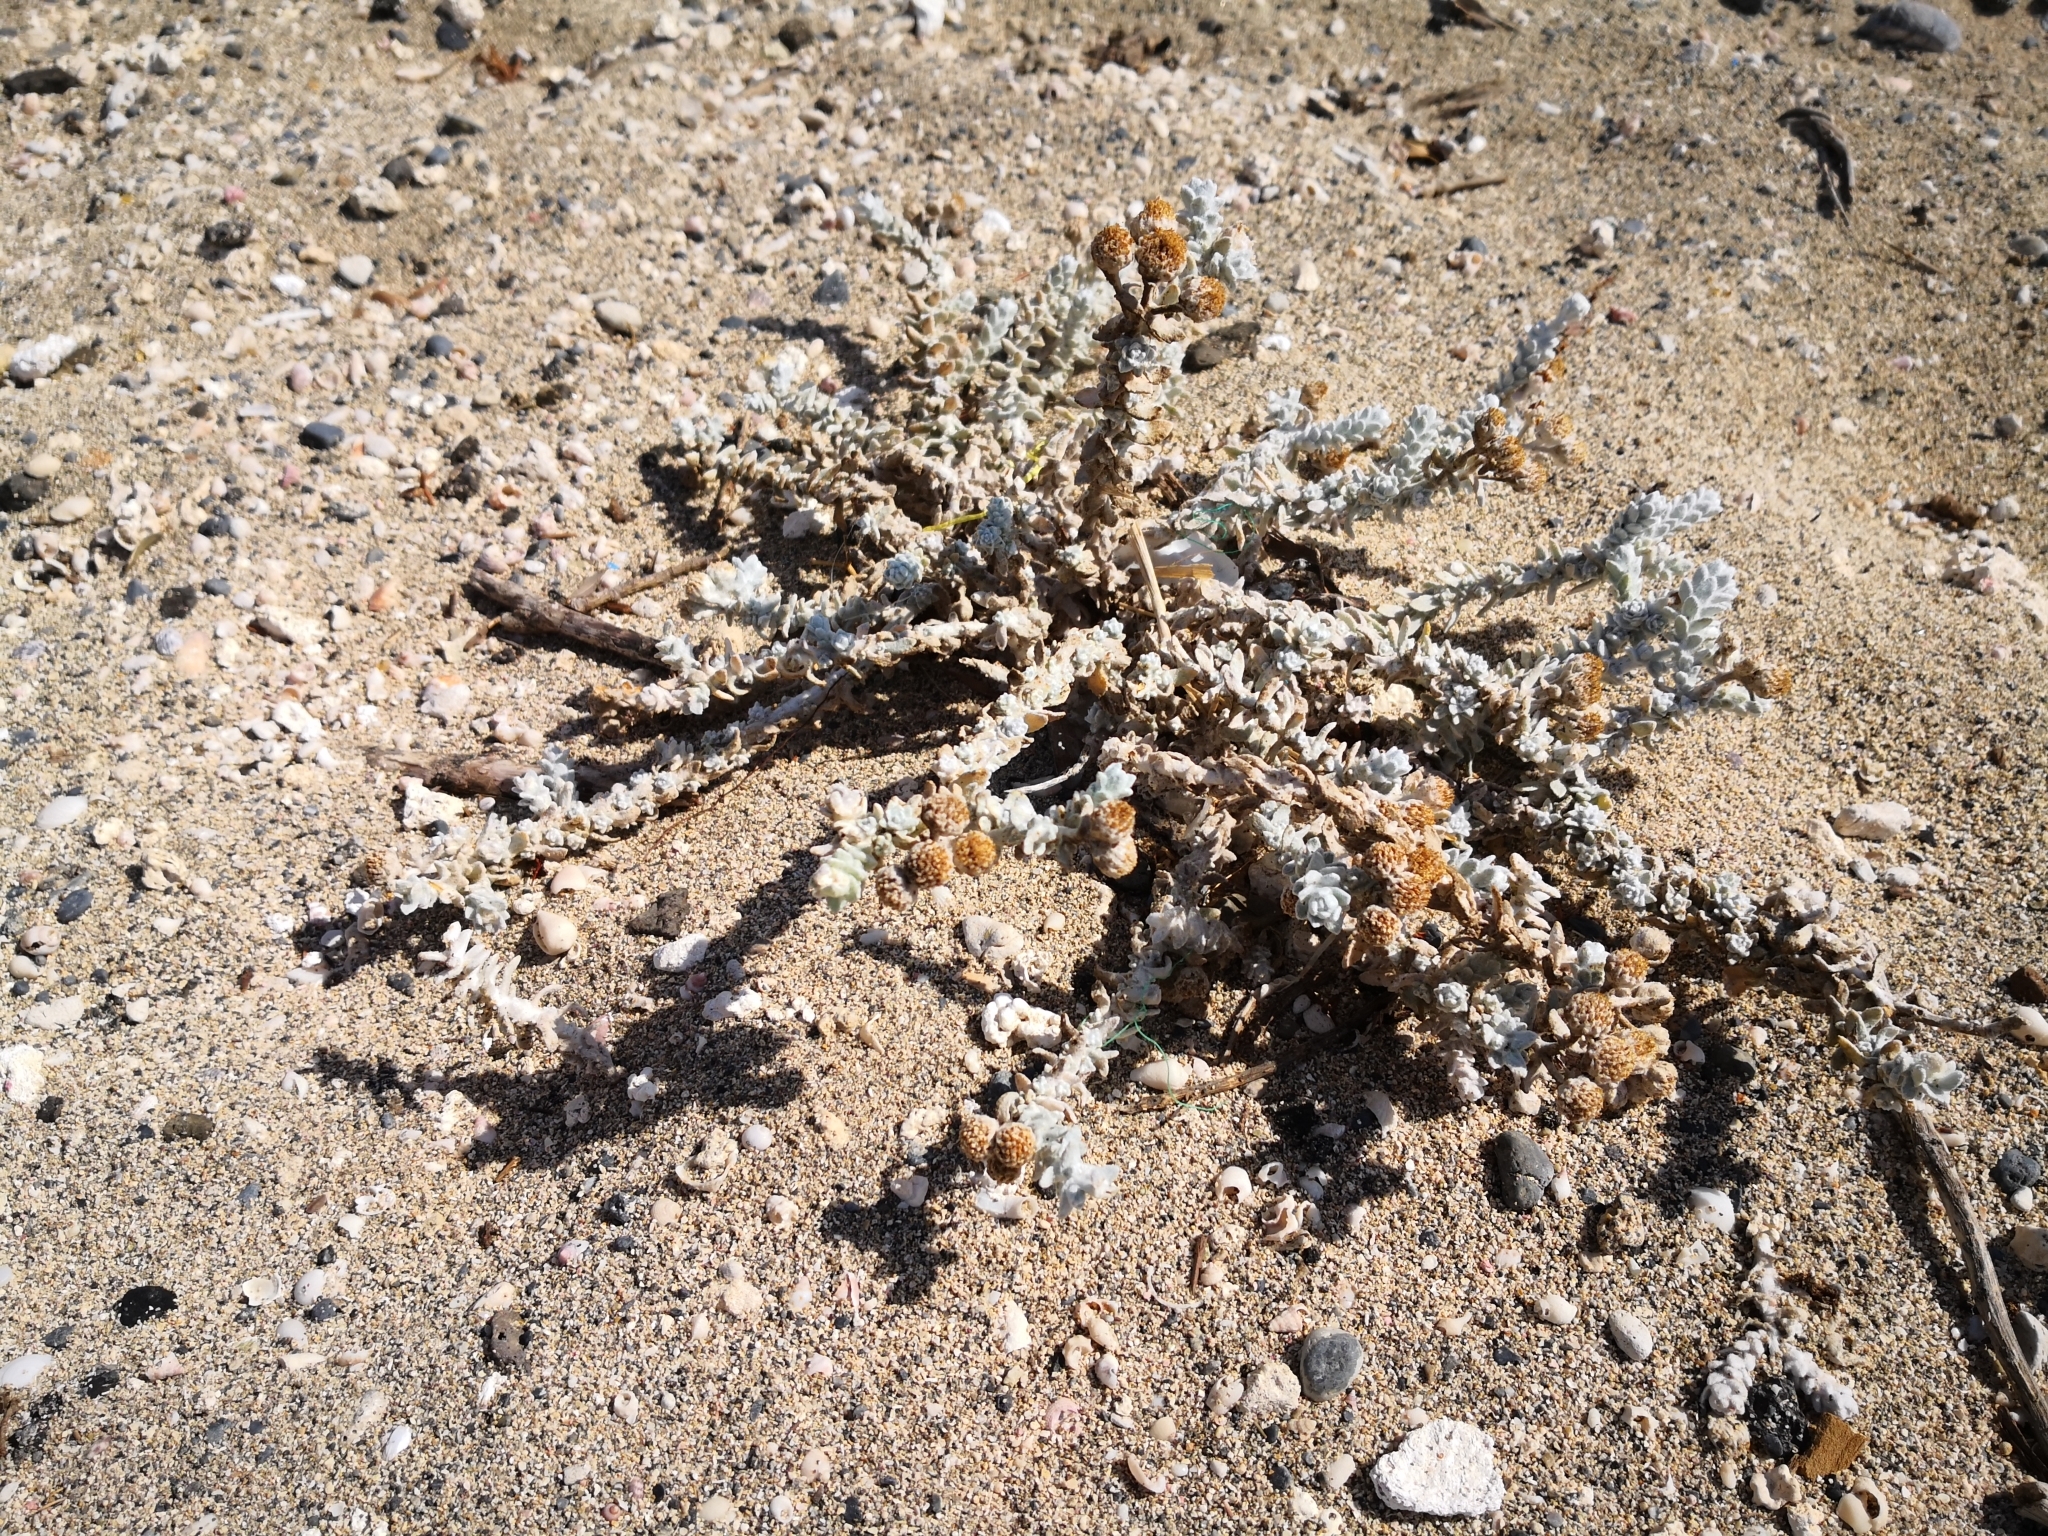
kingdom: Plantae
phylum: Tracheophyta
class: Magnoliopsida
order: Asterales
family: Asteraceae
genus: Achillea
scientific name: Achillea maritima
